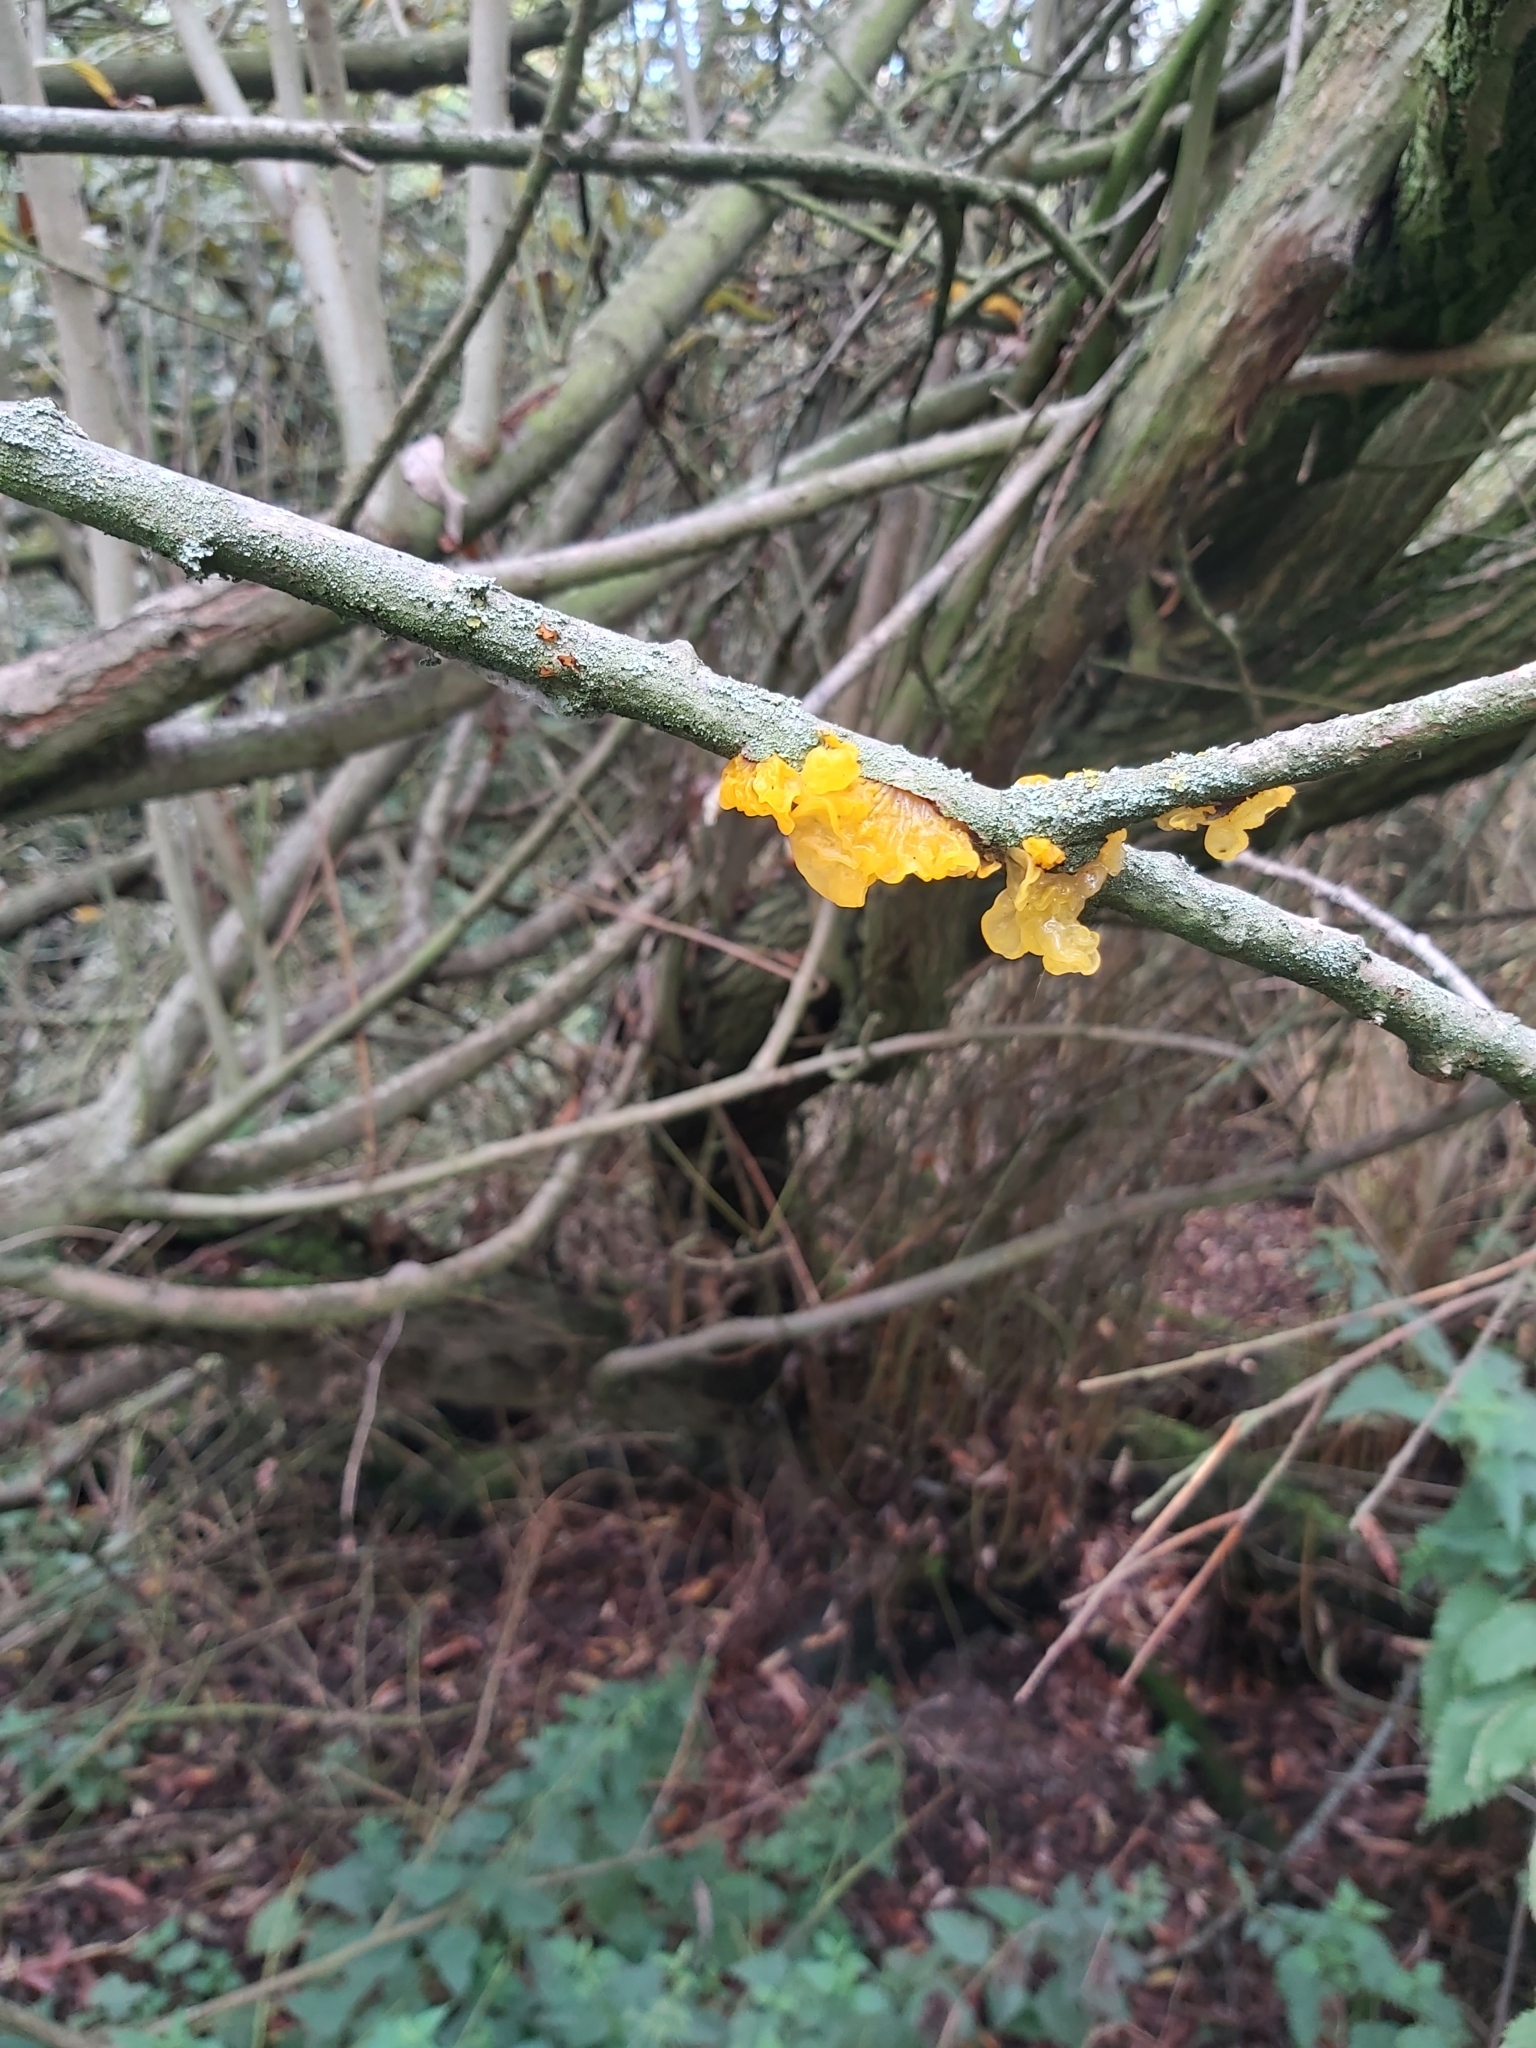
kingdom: Fungi
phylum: Basidiomycota
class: Tremellomycetes
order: Tremellales
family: Tremellaceae
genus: Tremella
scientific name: Tremella mesenterica
